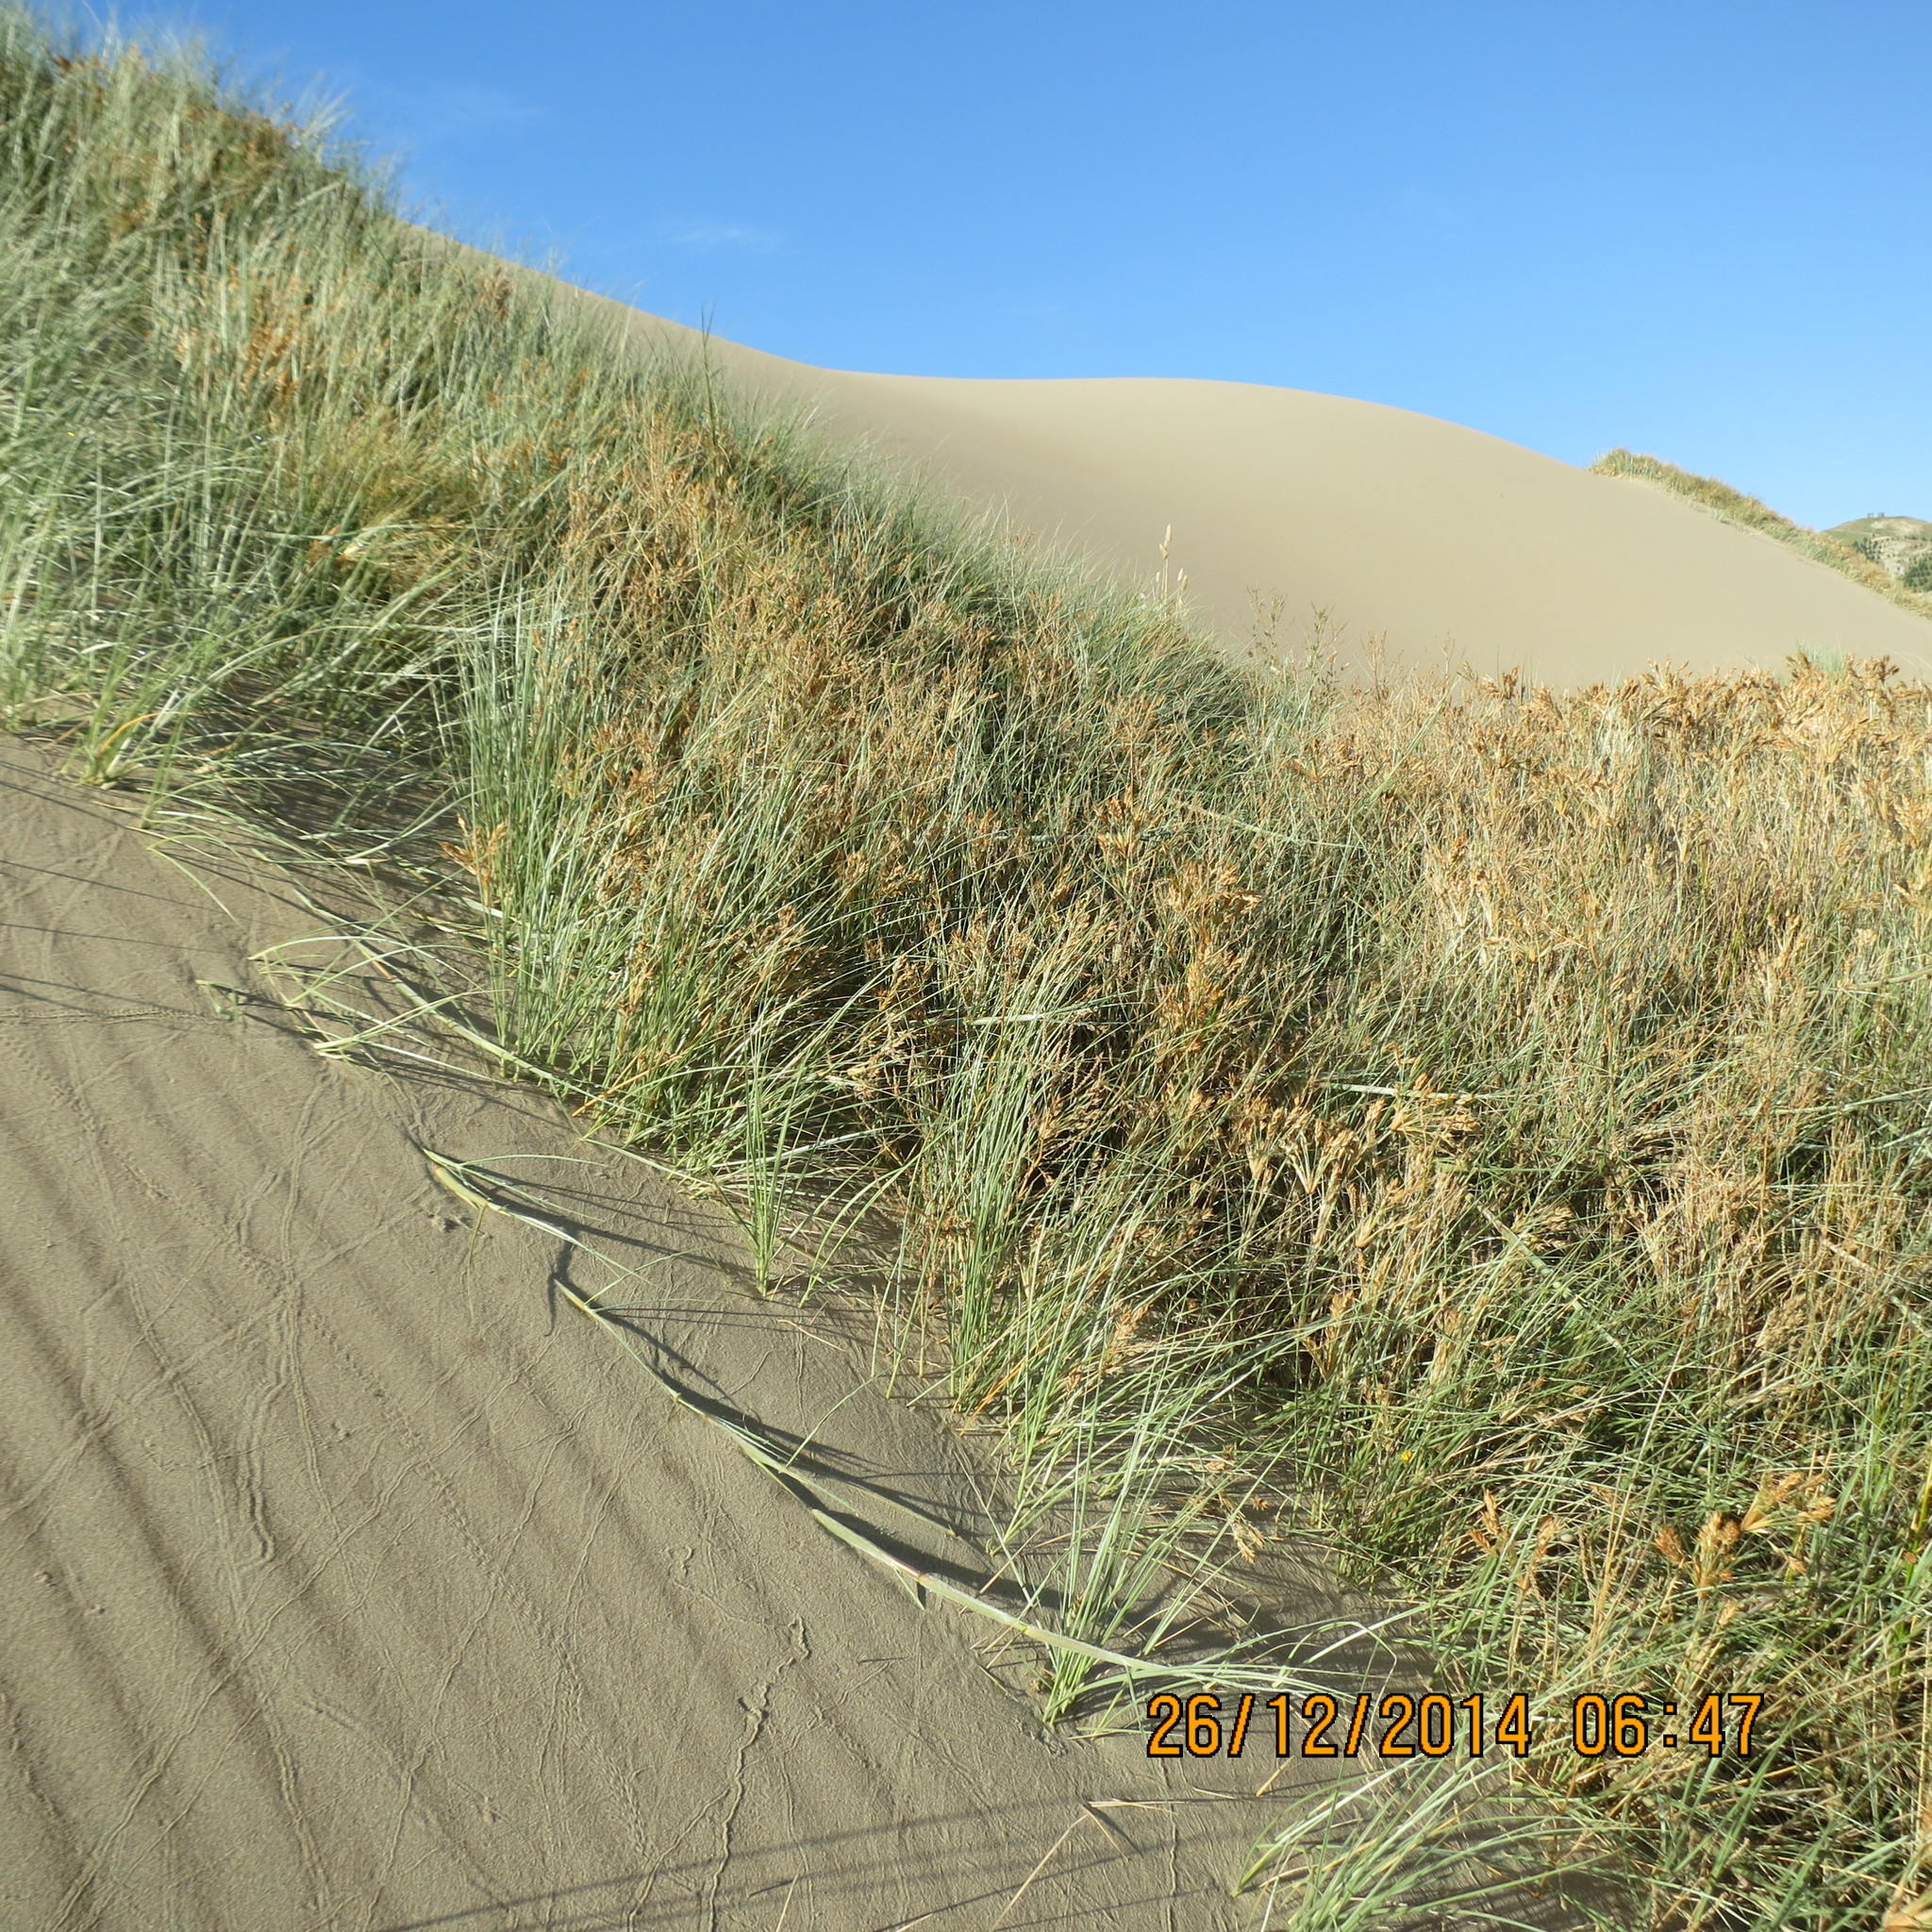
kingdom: Plantae
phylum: Tracheophyta
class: Liliopsida
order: Poales
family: Poaceae
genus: Spinifex
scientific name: Spinifex sericeus
